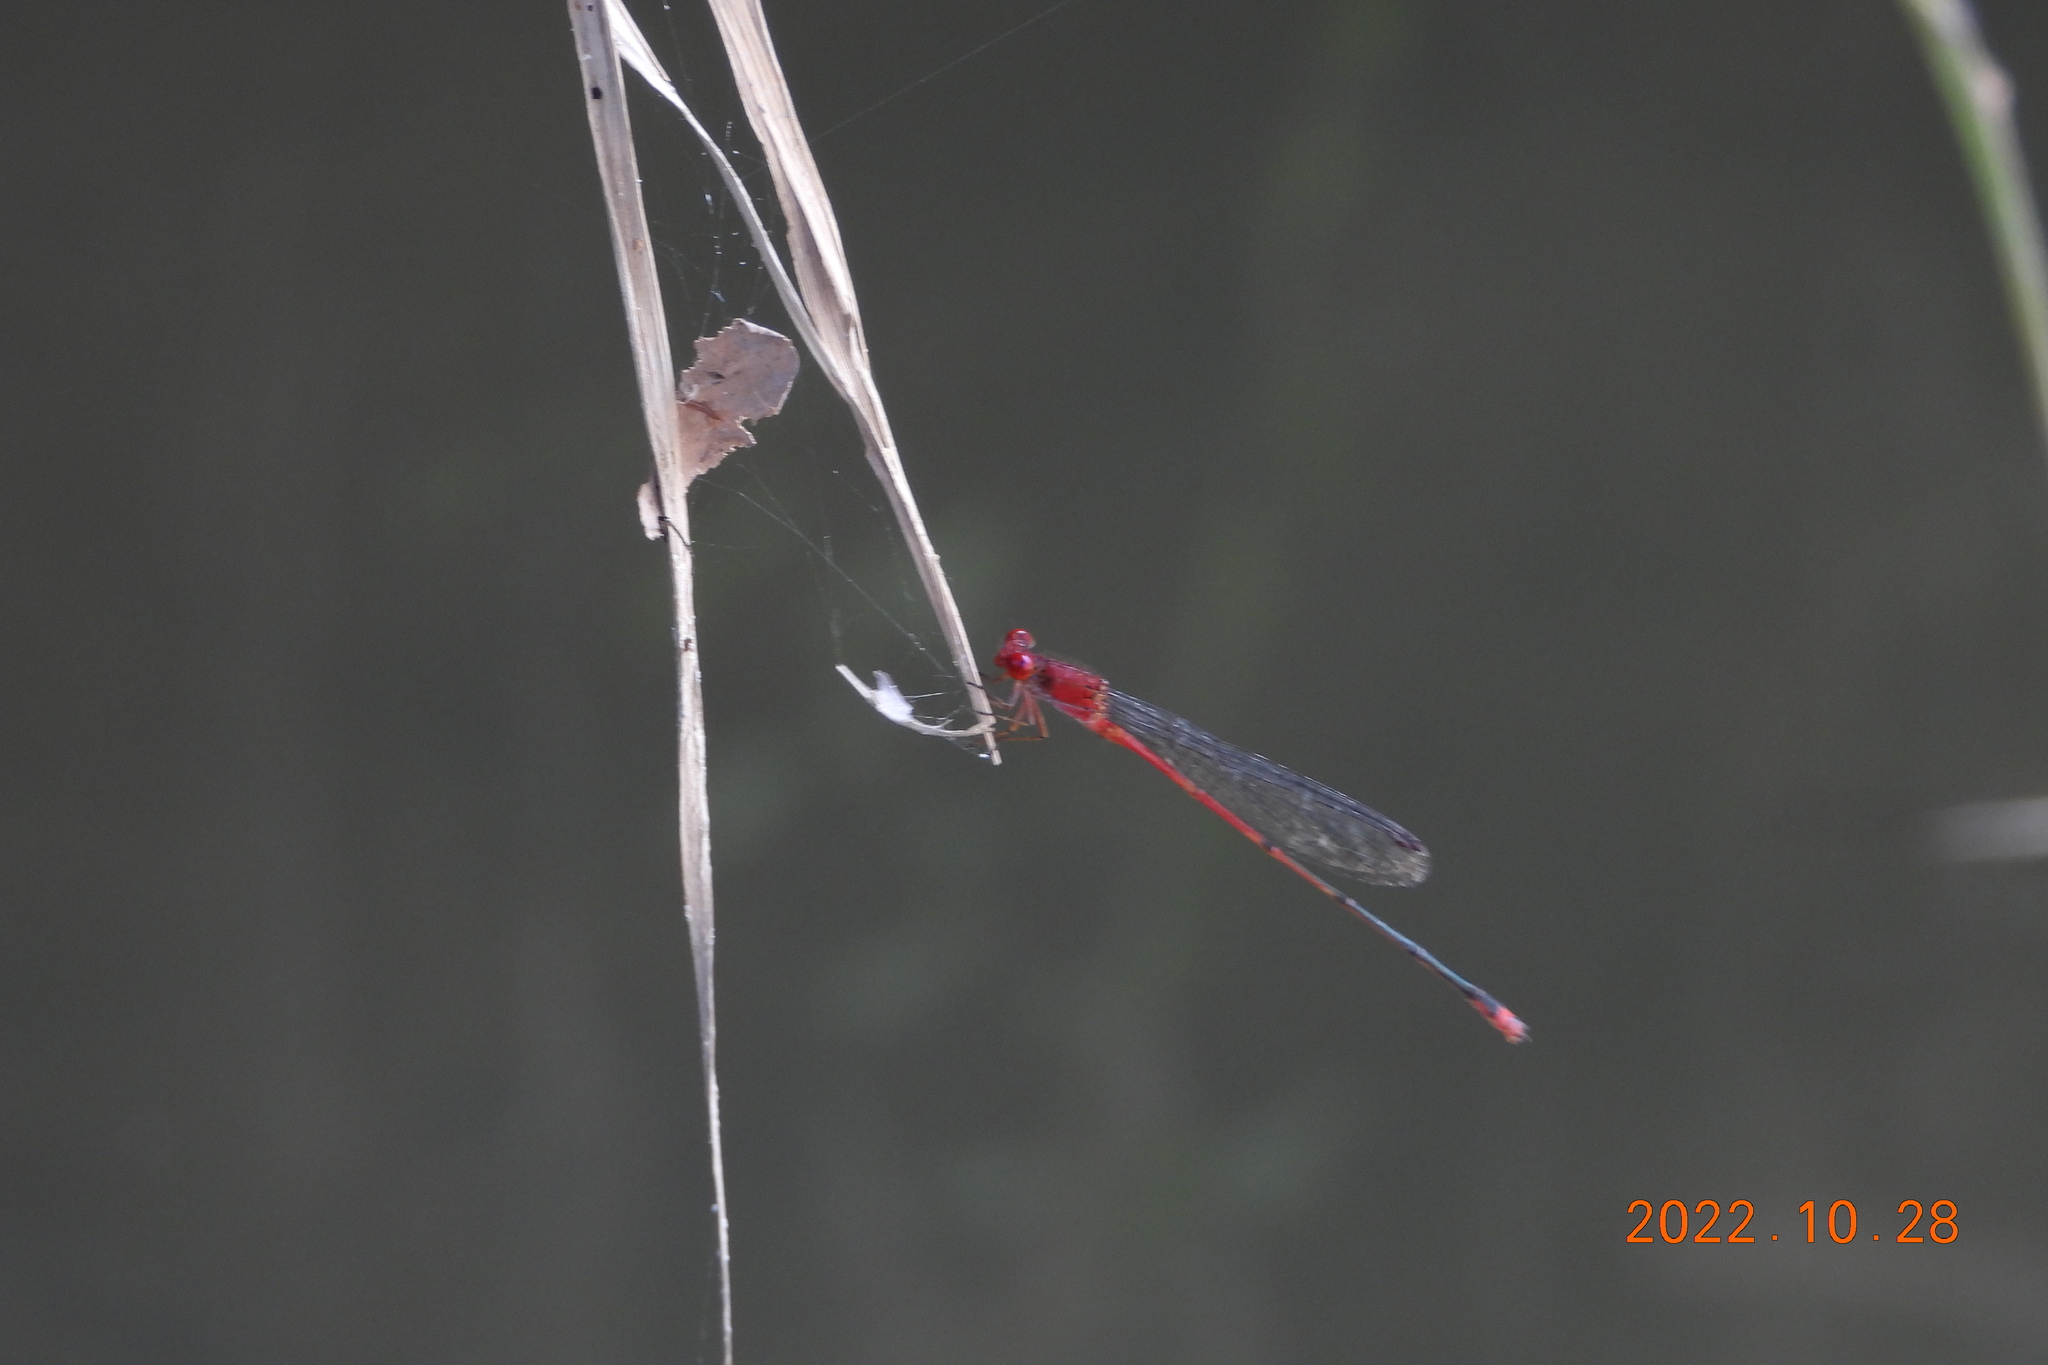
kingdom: Animalia
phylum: Arthropoda
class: Insecta
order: Odonata
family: Coenagrionidae
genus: Pseudagrion
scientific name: Pseudagrion pilidorsum
